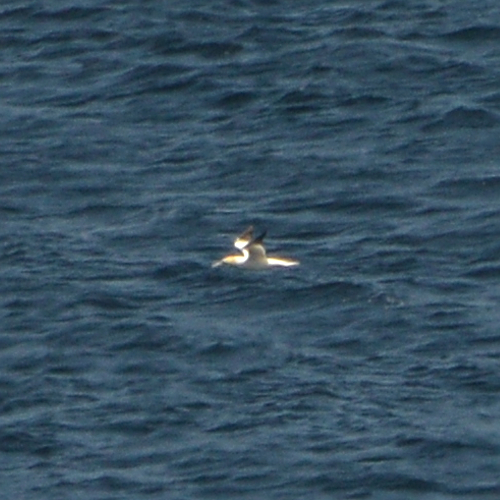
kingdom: Animalia
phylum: Chordata
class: Aves
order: Suliformes
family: Sulidae
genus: Morus
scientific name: Morus bassanus
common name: Northern gannet
